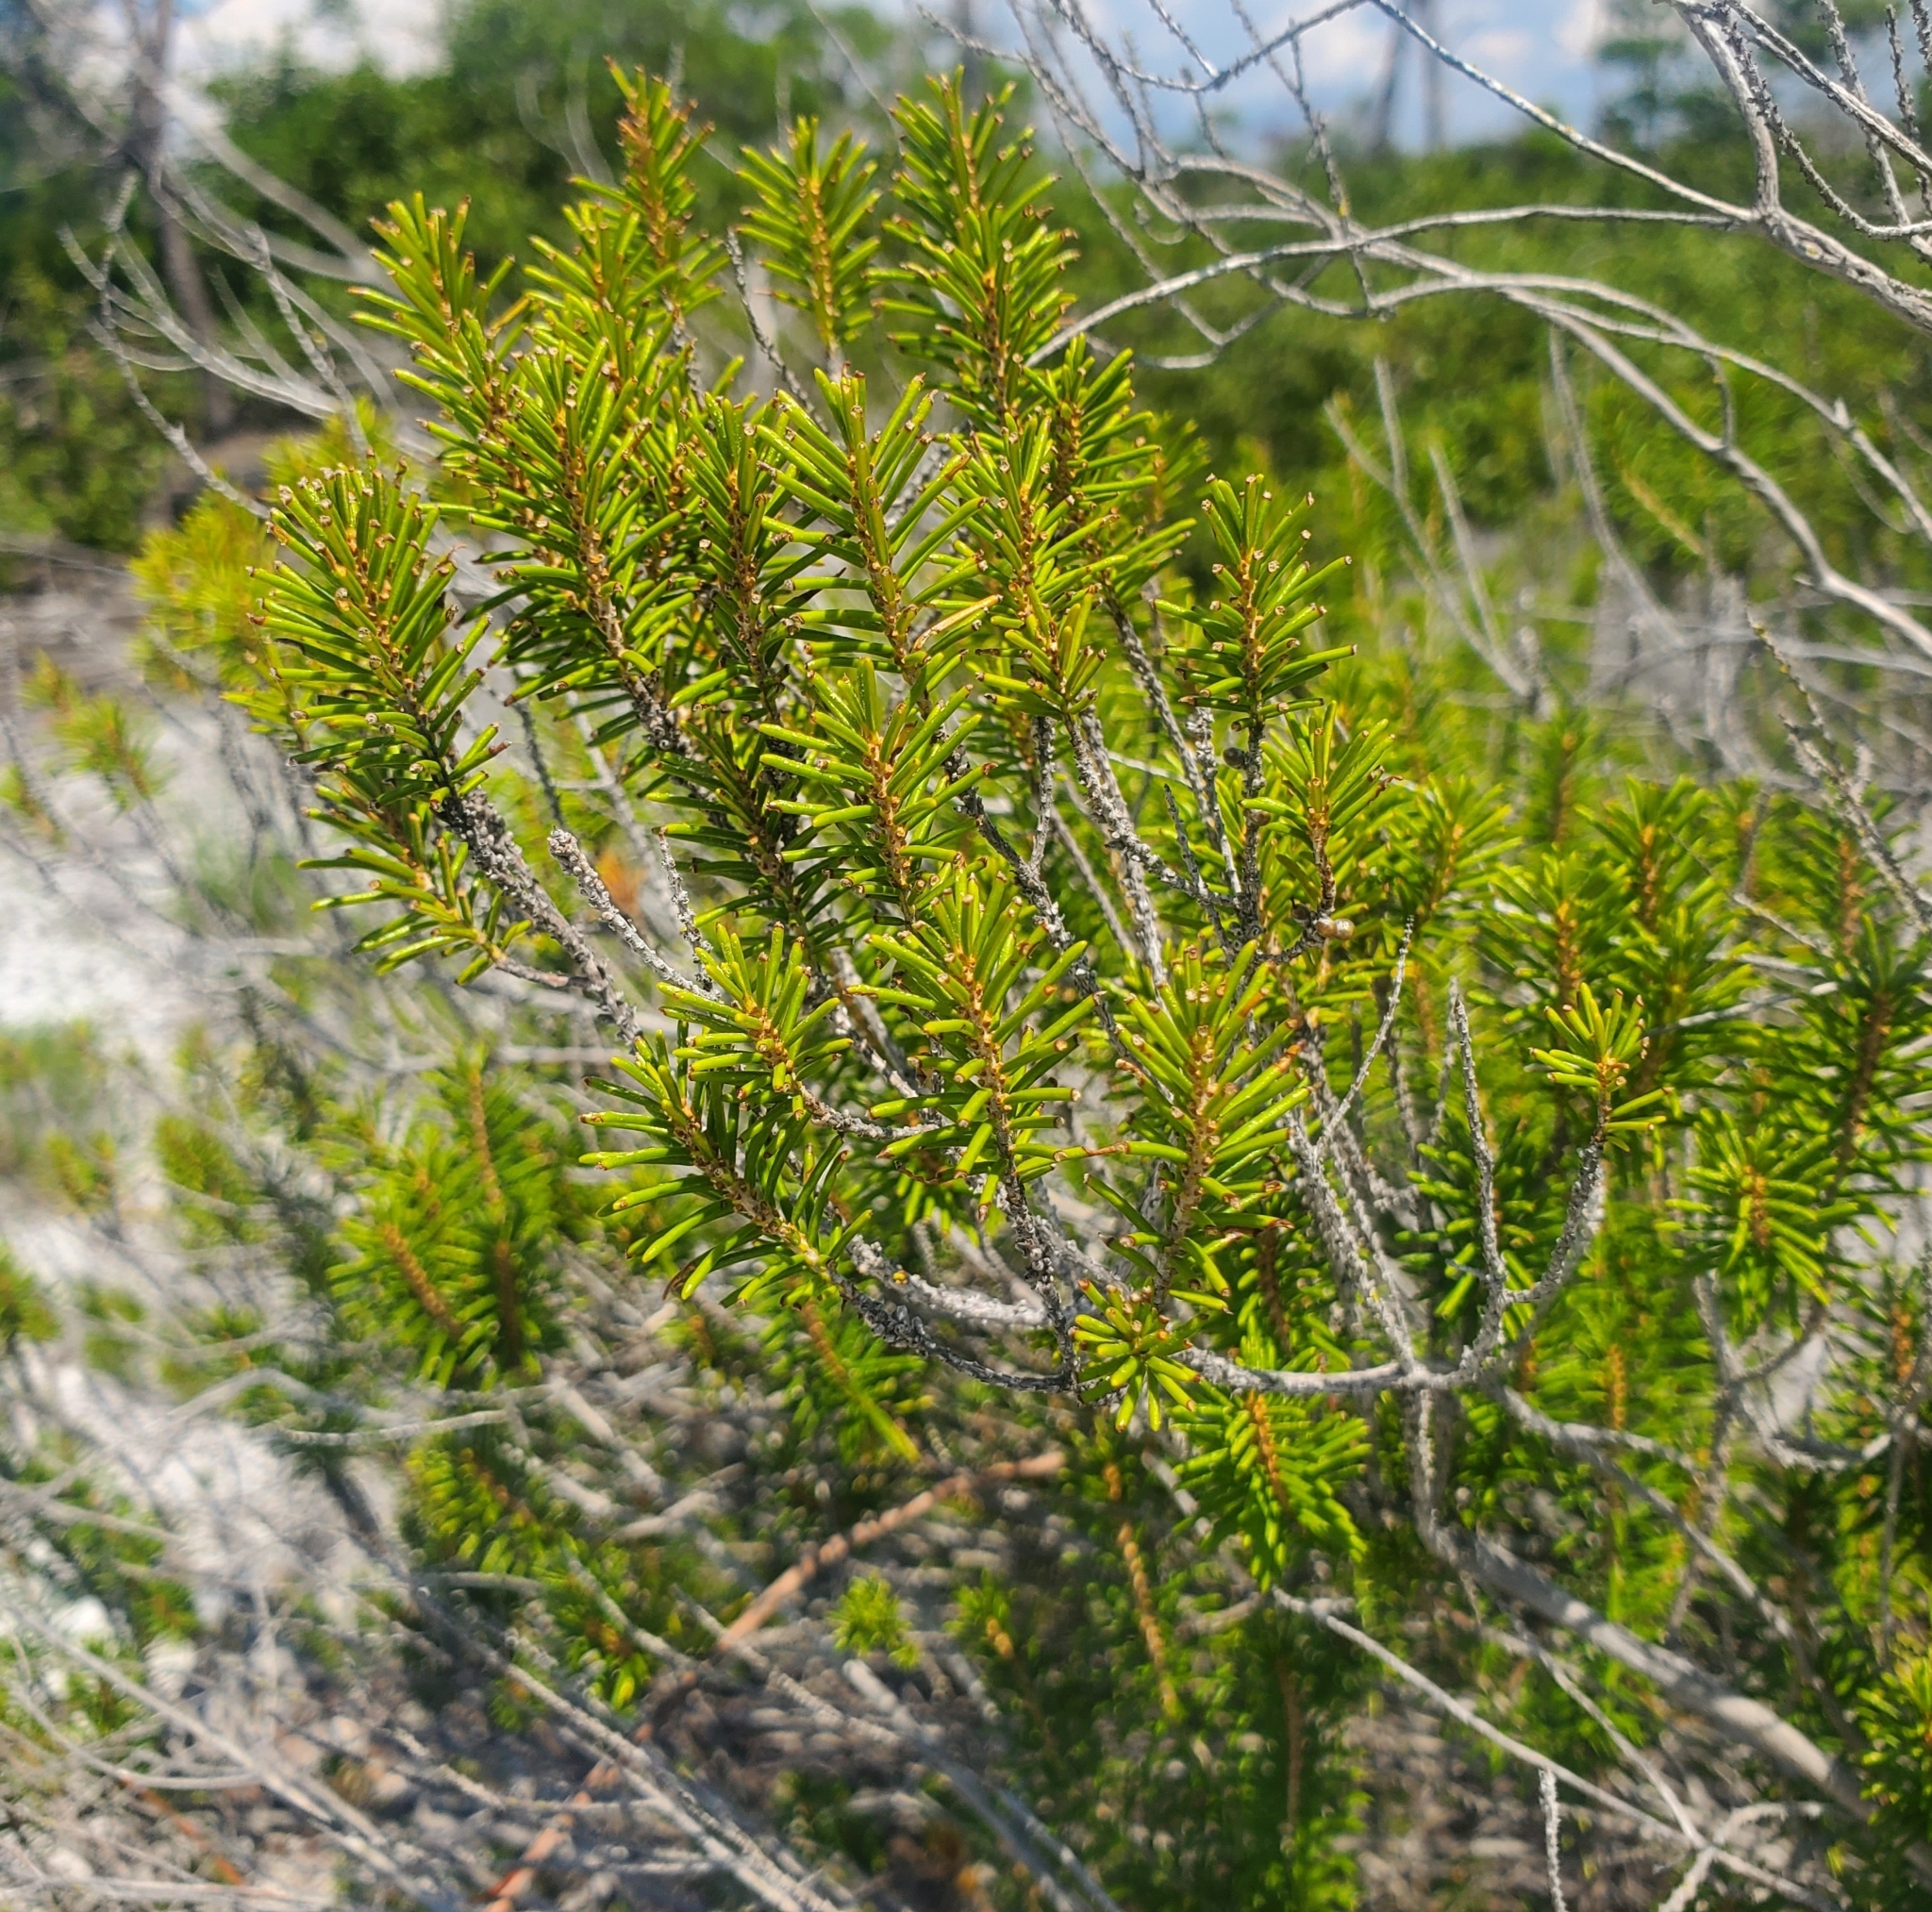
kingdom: Plantae
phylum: Tracheophyta
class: Magnoliopsida
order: Ericales
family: Ericaceae
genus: Ceratiola
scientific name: Ceratiola ericoides
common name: Sandhill-rosemary
